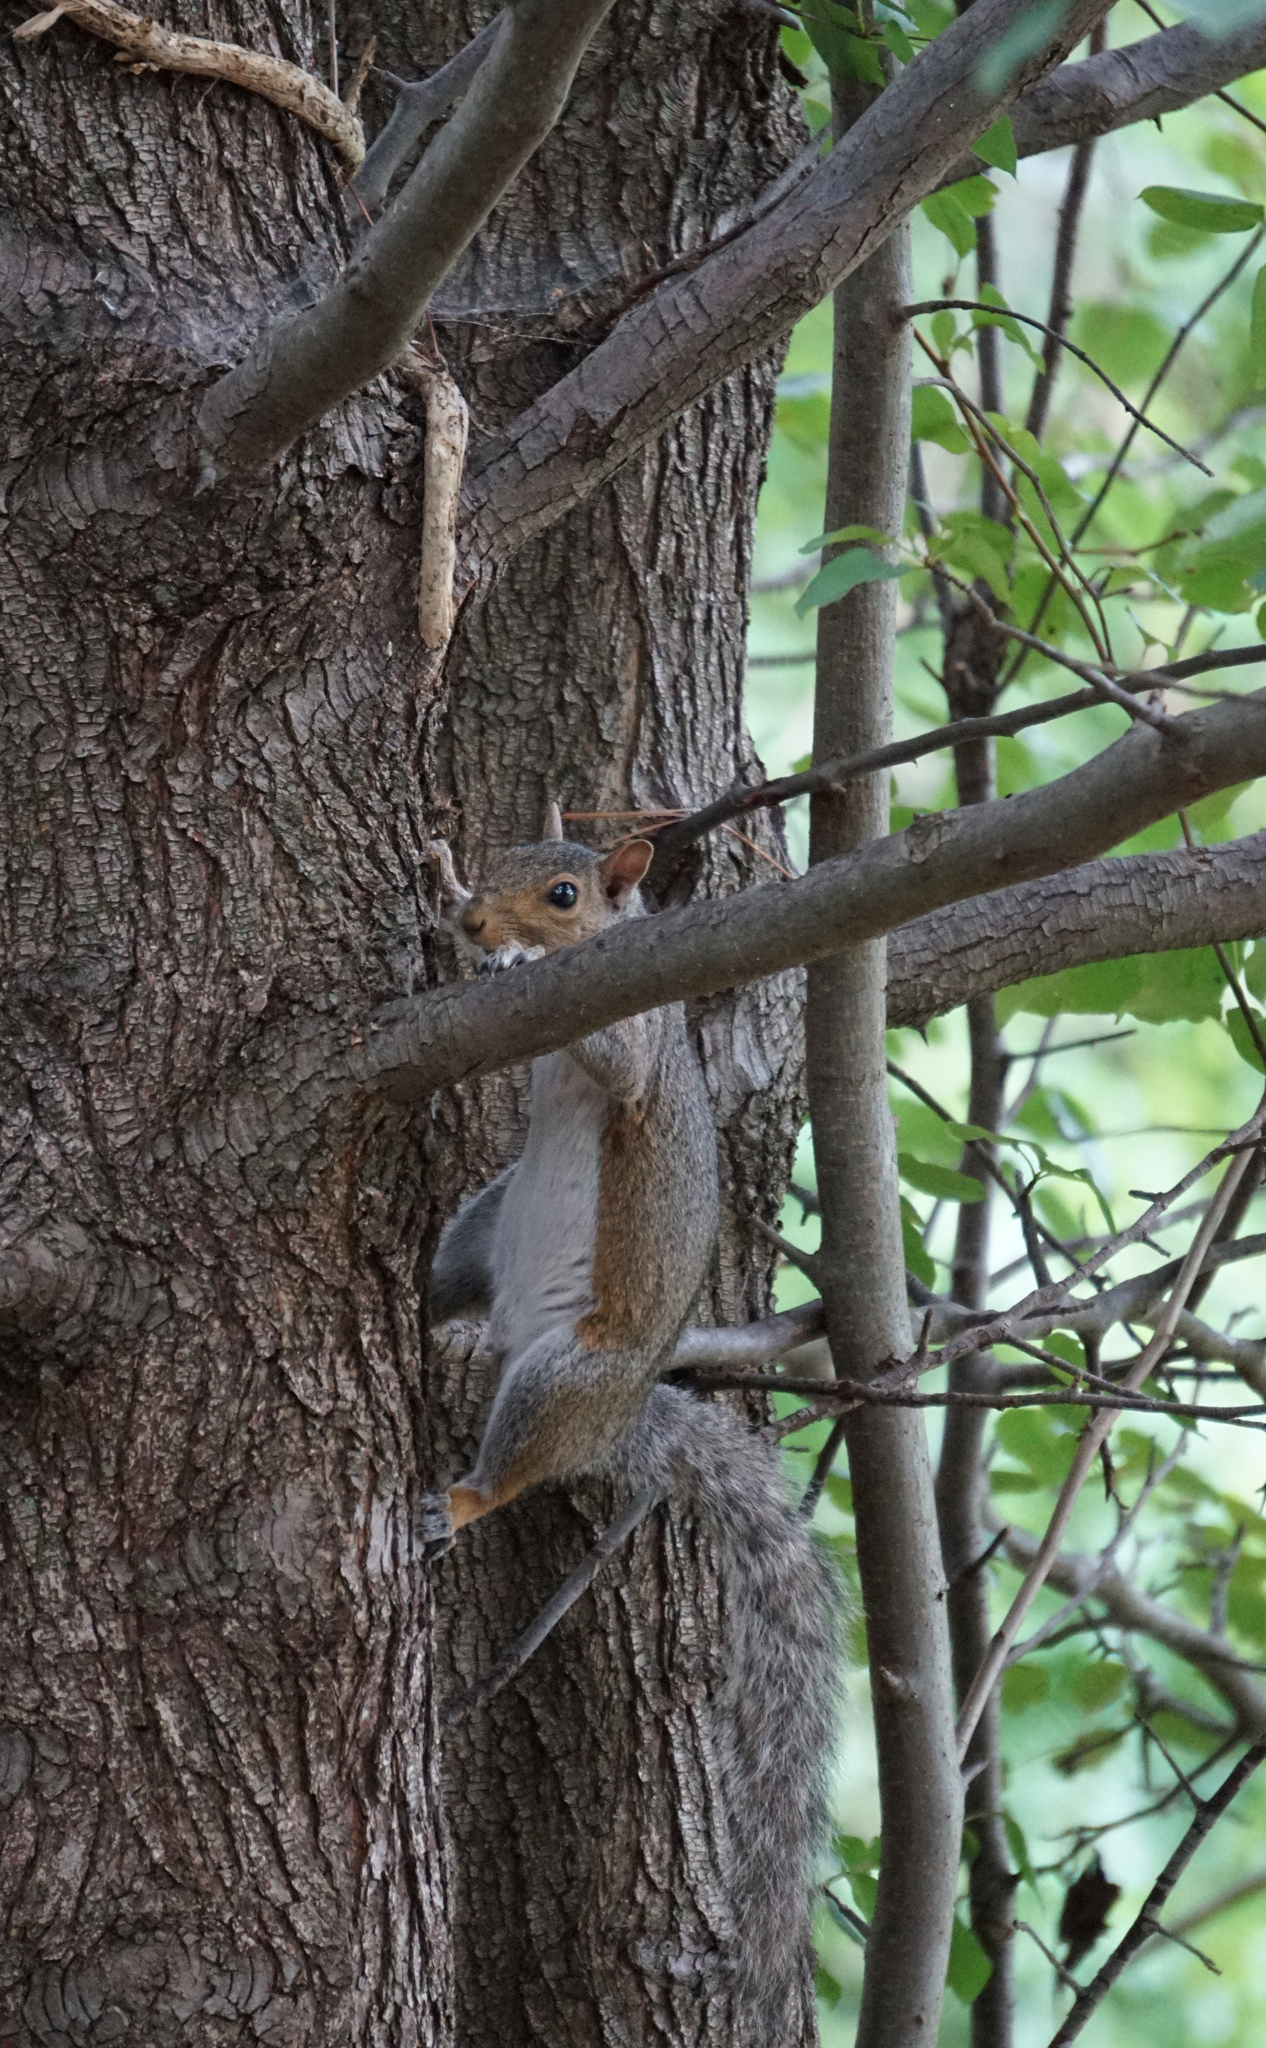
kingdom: Animalia
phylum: Chordata
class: Mammalia
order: Rodentia
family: Sciuridae
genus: Sciurus
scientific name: Sciurus carolinensis
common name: Eastern gray squirrel
